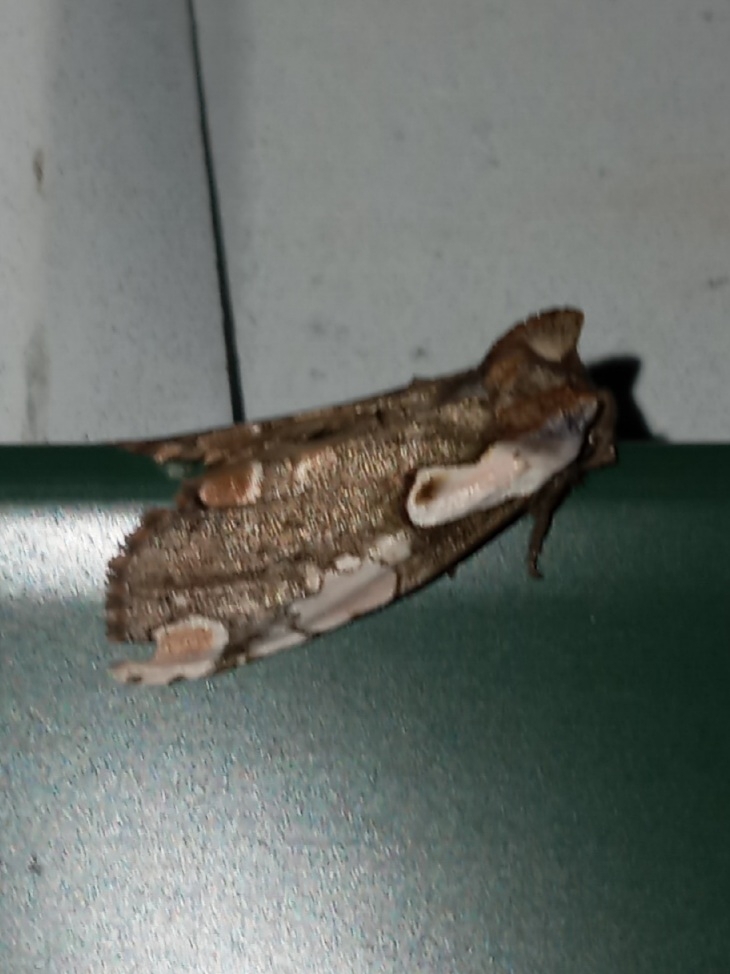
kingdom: Animalia
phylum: Arthropoda
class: Insecta
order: Lepidoptera
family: Drepanidae
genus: Euthyatira
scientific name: Euthyatira pudens
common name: Dogwood thyatirid moth
